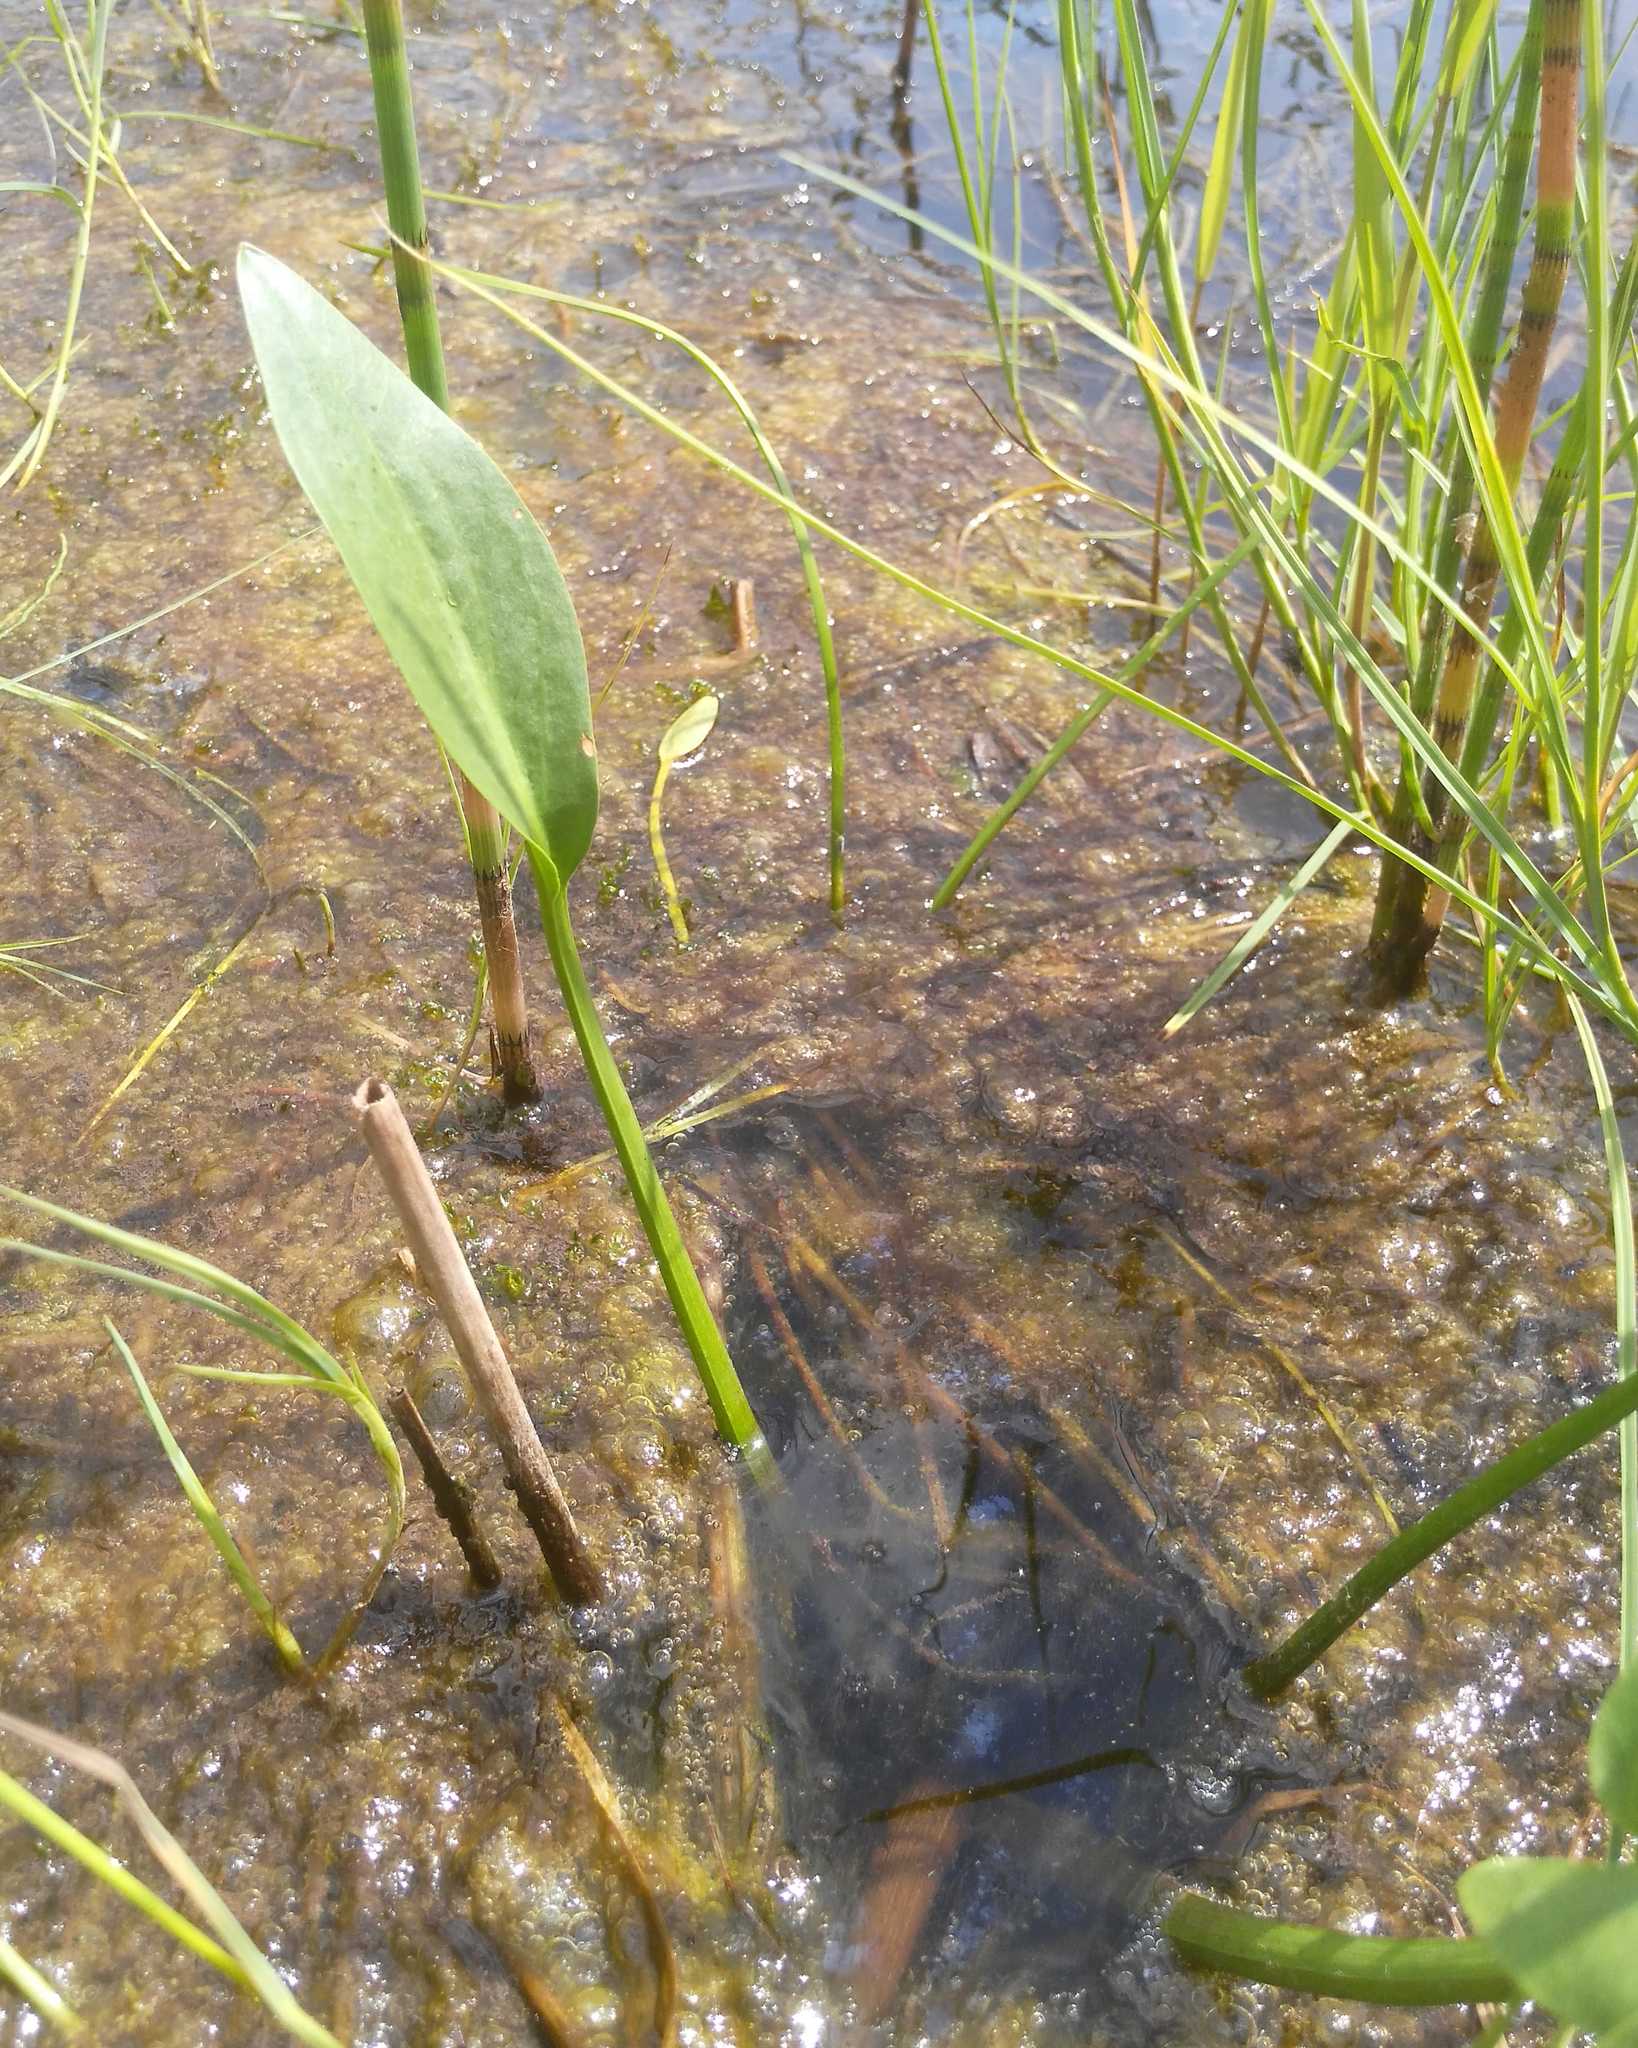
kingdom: Plantae
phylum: Tracheophyta
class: Liliopsida
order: Alismatales
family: Alismataceae
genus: Alisma
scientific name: Alisma plantago-aquatica
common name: Water-plantain
